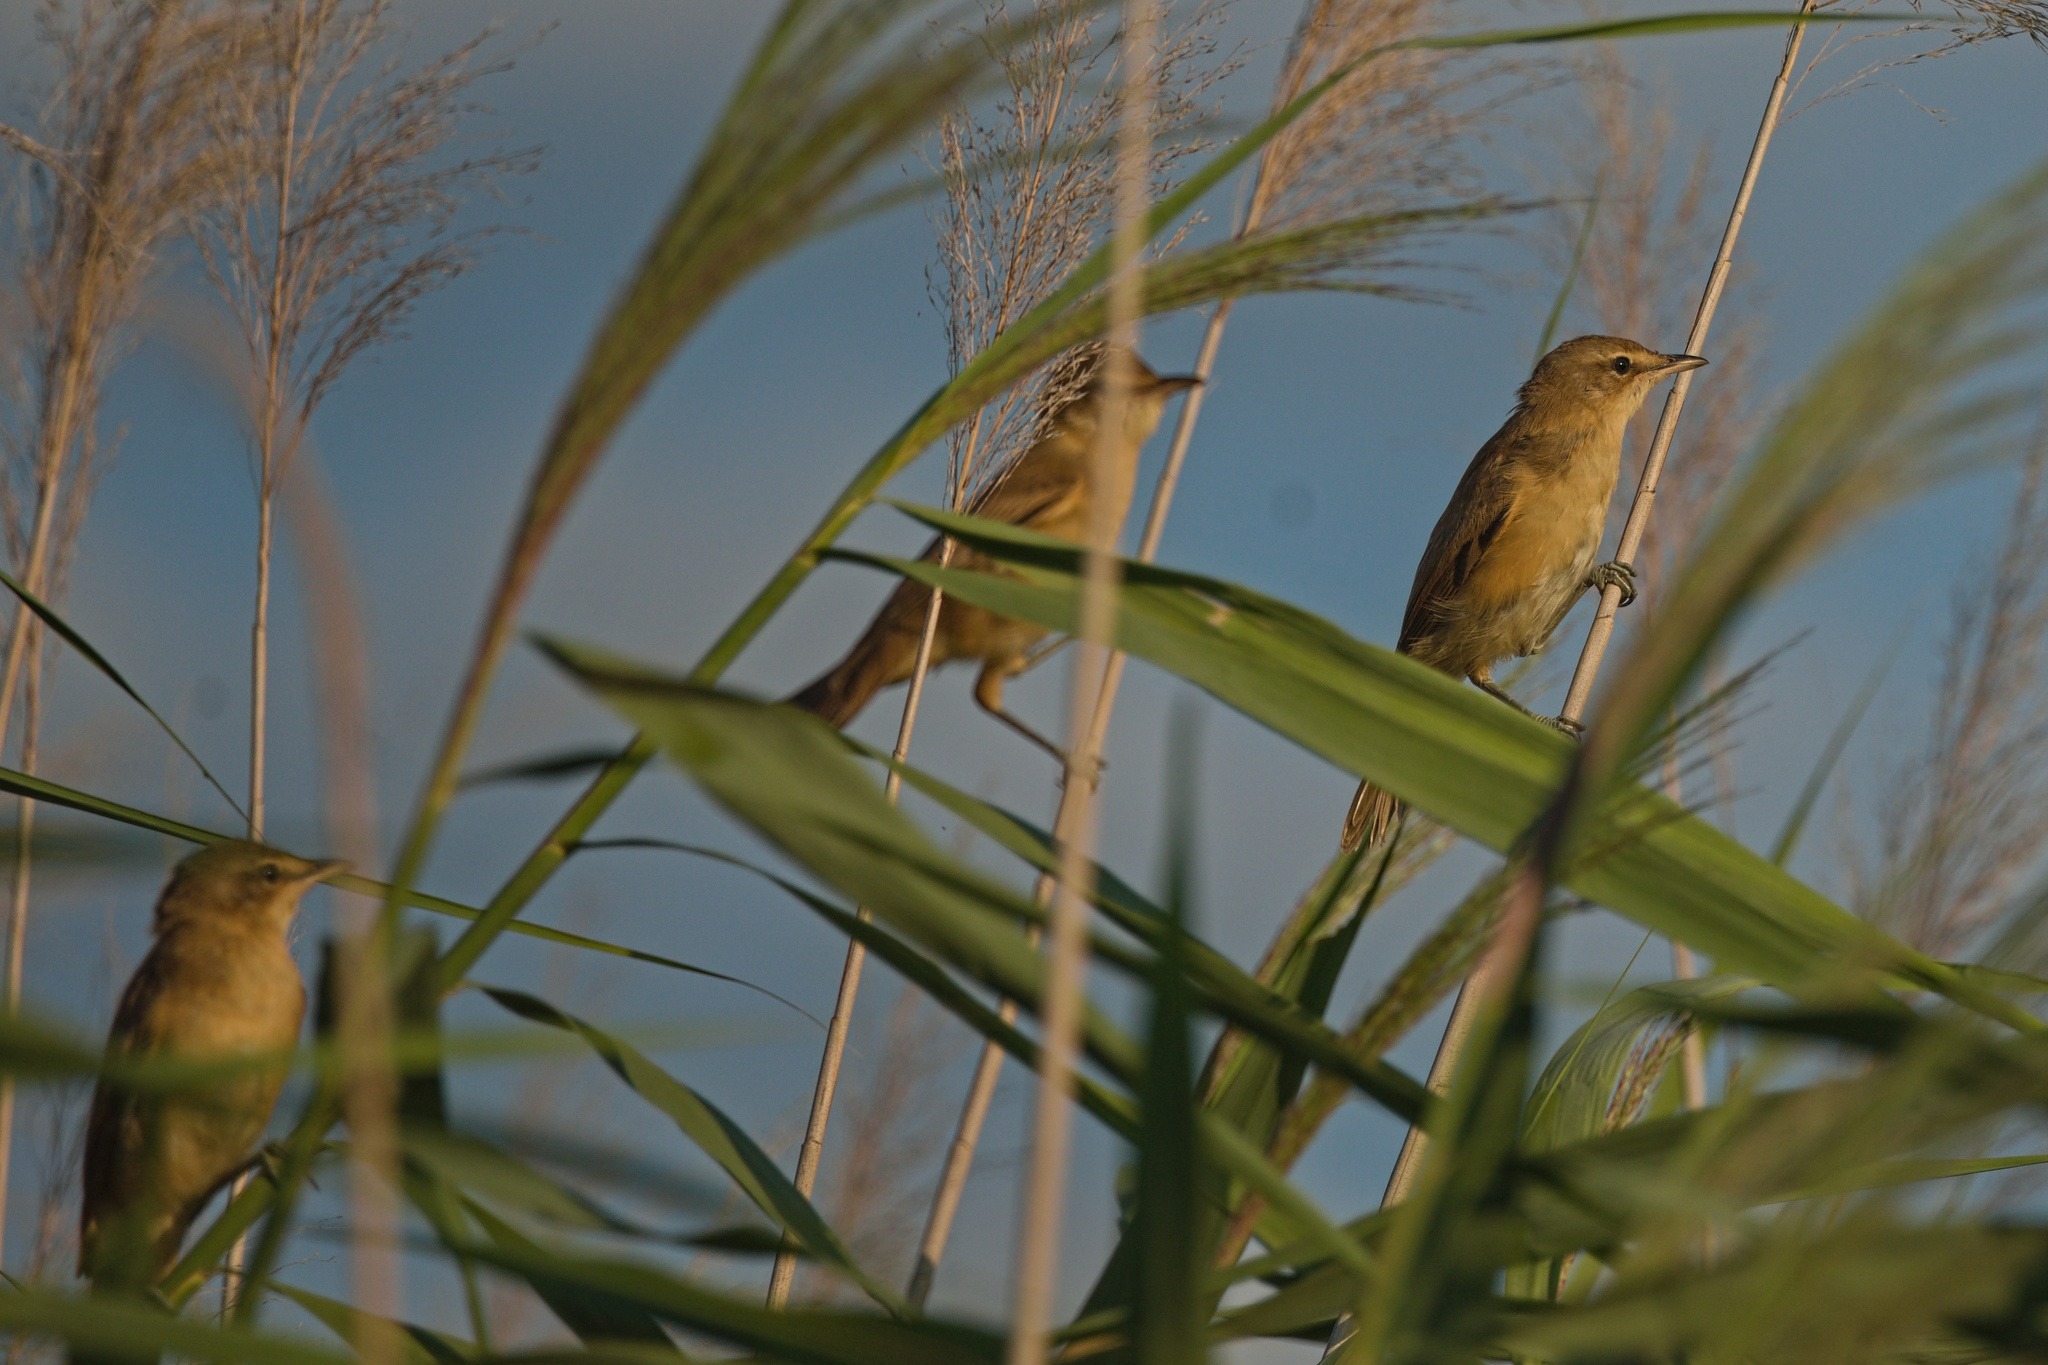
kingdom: Animalia
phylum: Chordata
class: Aves
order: Passeriformes
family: Acrocephalidae
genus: Acrocephalus
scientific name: Acrocephalus scirpaceus
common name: Eurasian reed warbler
